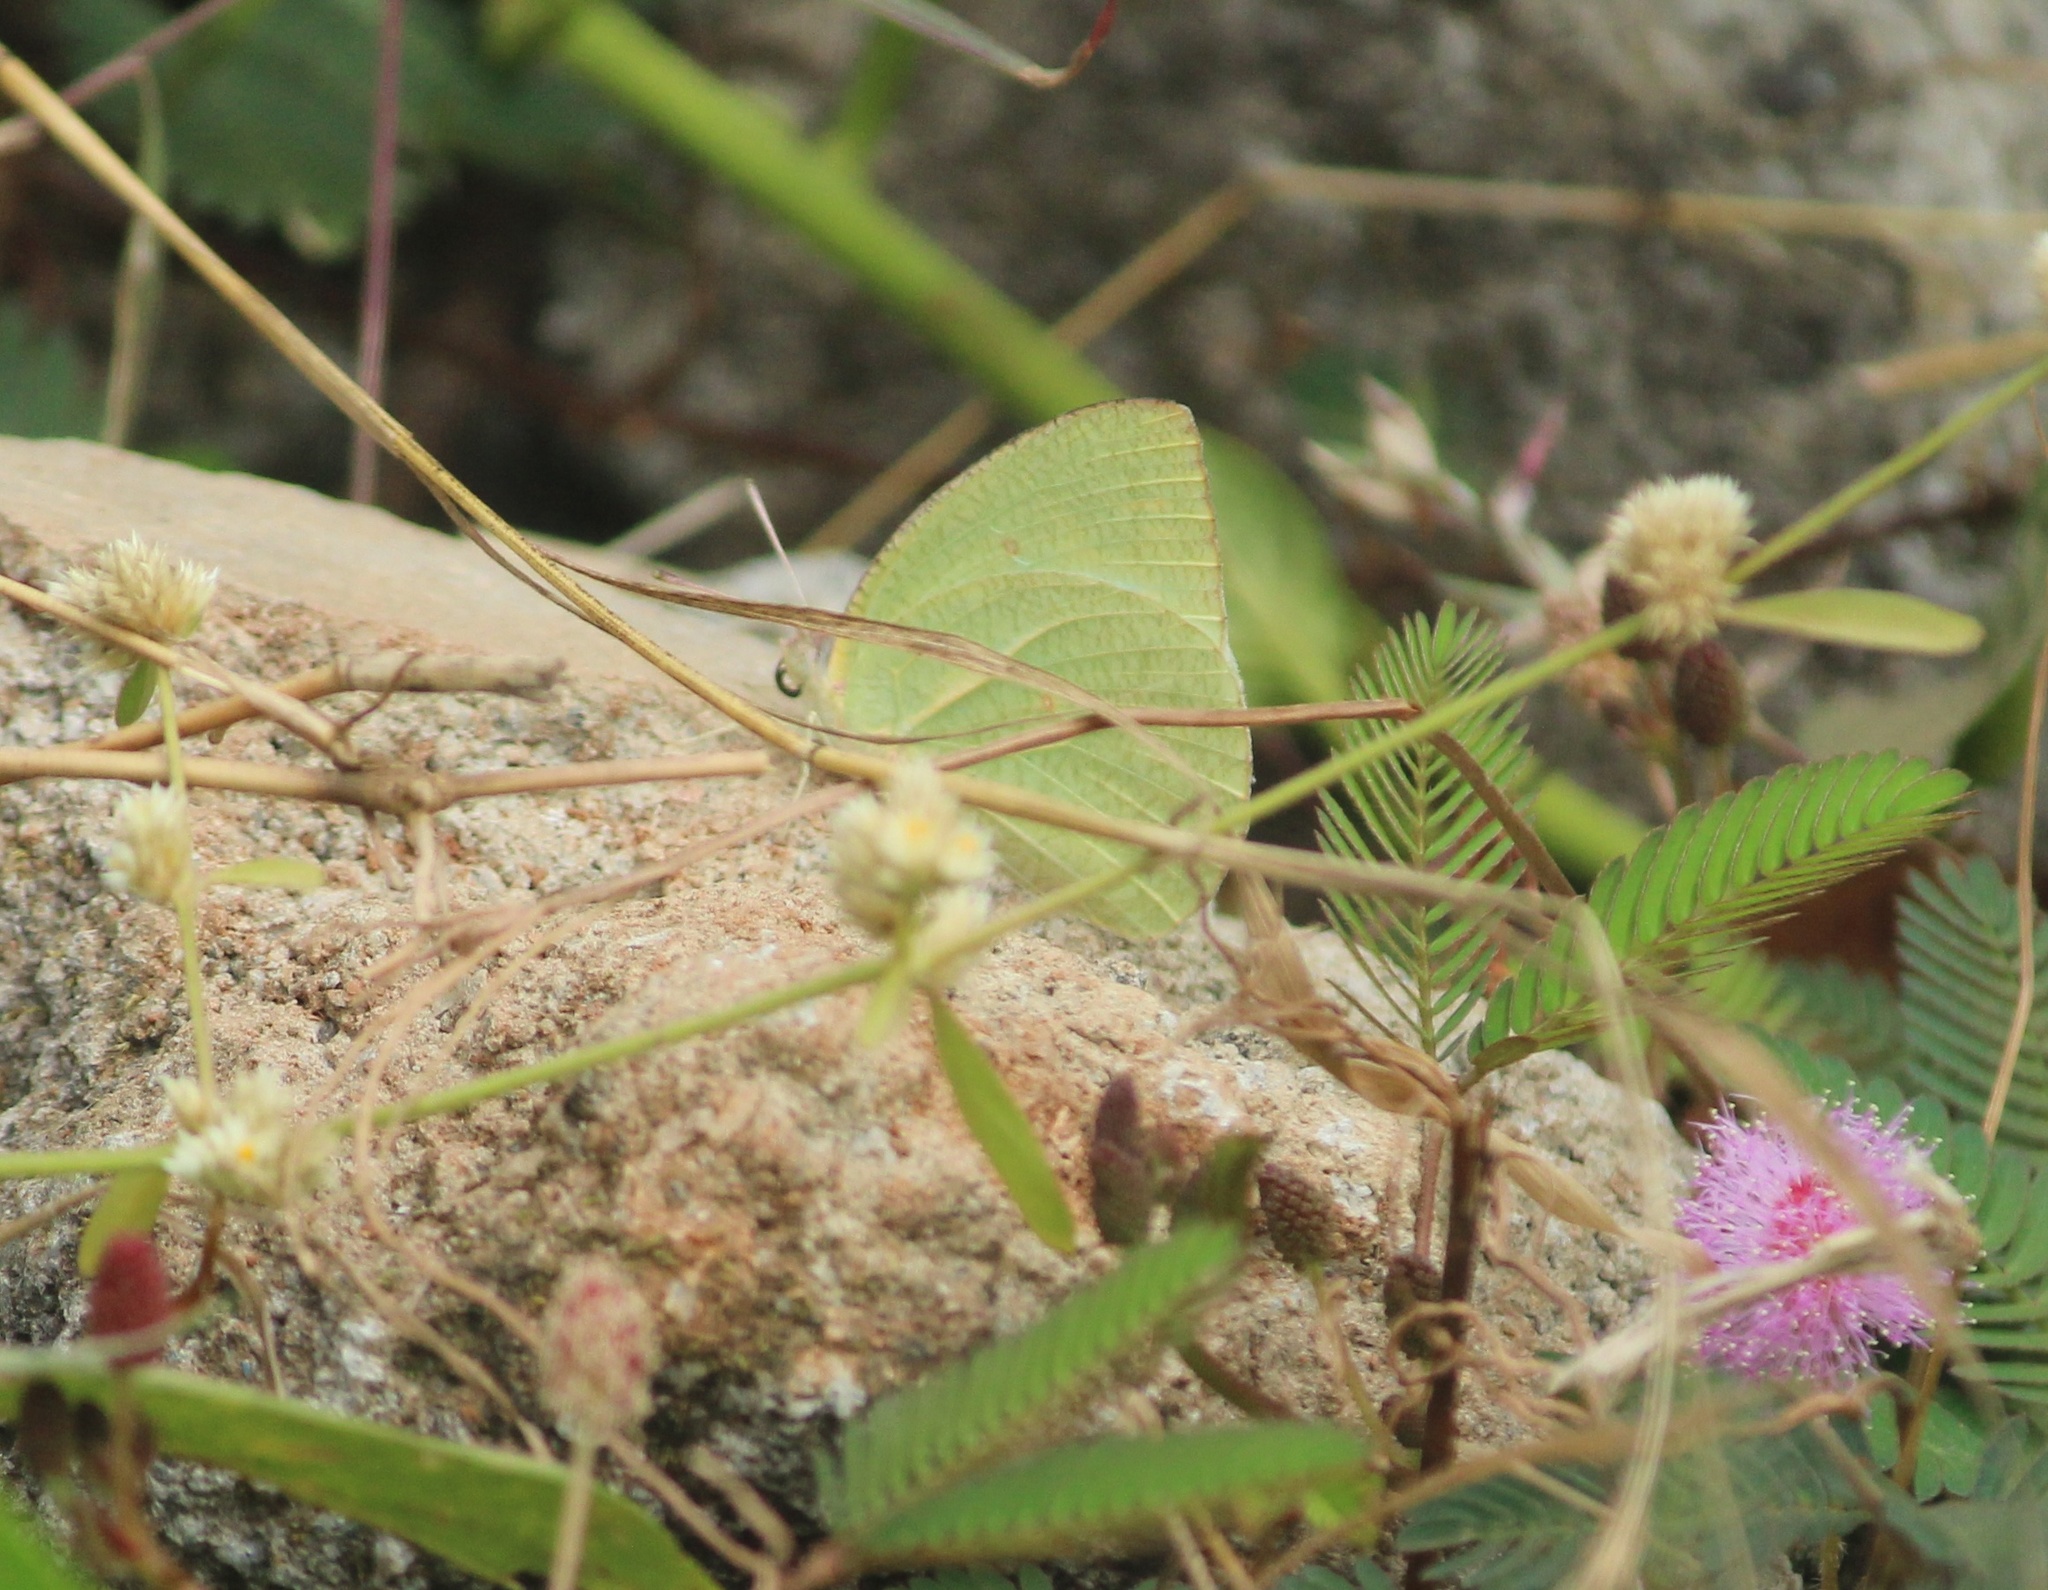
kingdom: Animalia
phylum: Arthropoda
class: Insecta
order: Lepidoptera
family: Pieridae
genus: Catopsilia
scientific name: Catopsilia pyranthe
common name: Mottled emigrant
